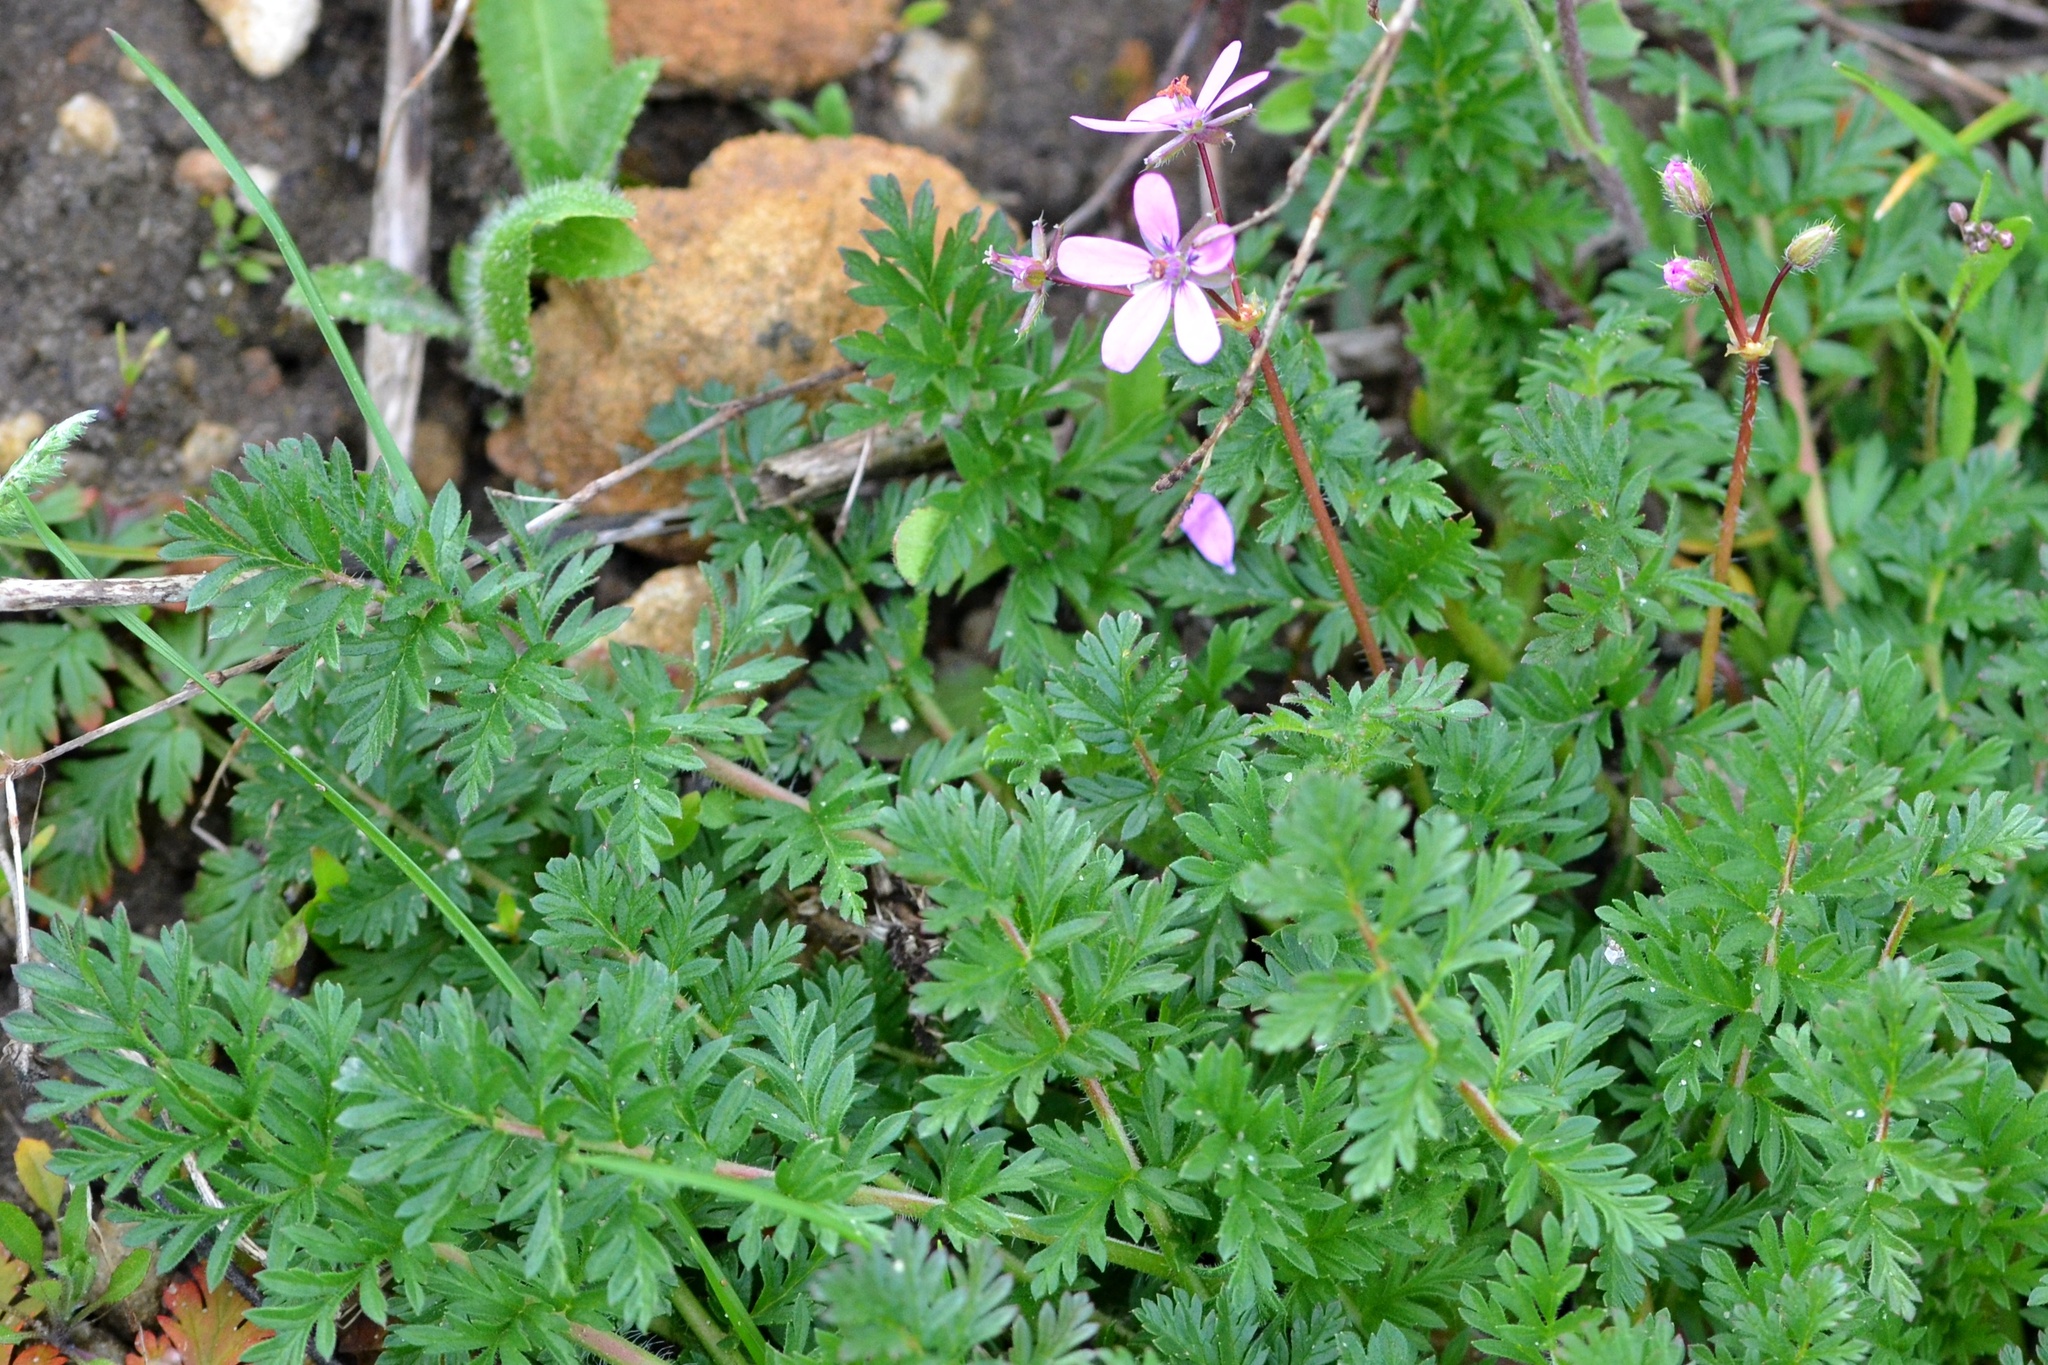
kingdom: Plantae
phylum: Tracheophyta
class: Magnoliopsida
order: Geraniales
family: Geraniaceae
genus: Erodium
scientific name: Erodium cicutarium
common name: Common stork's-bill
